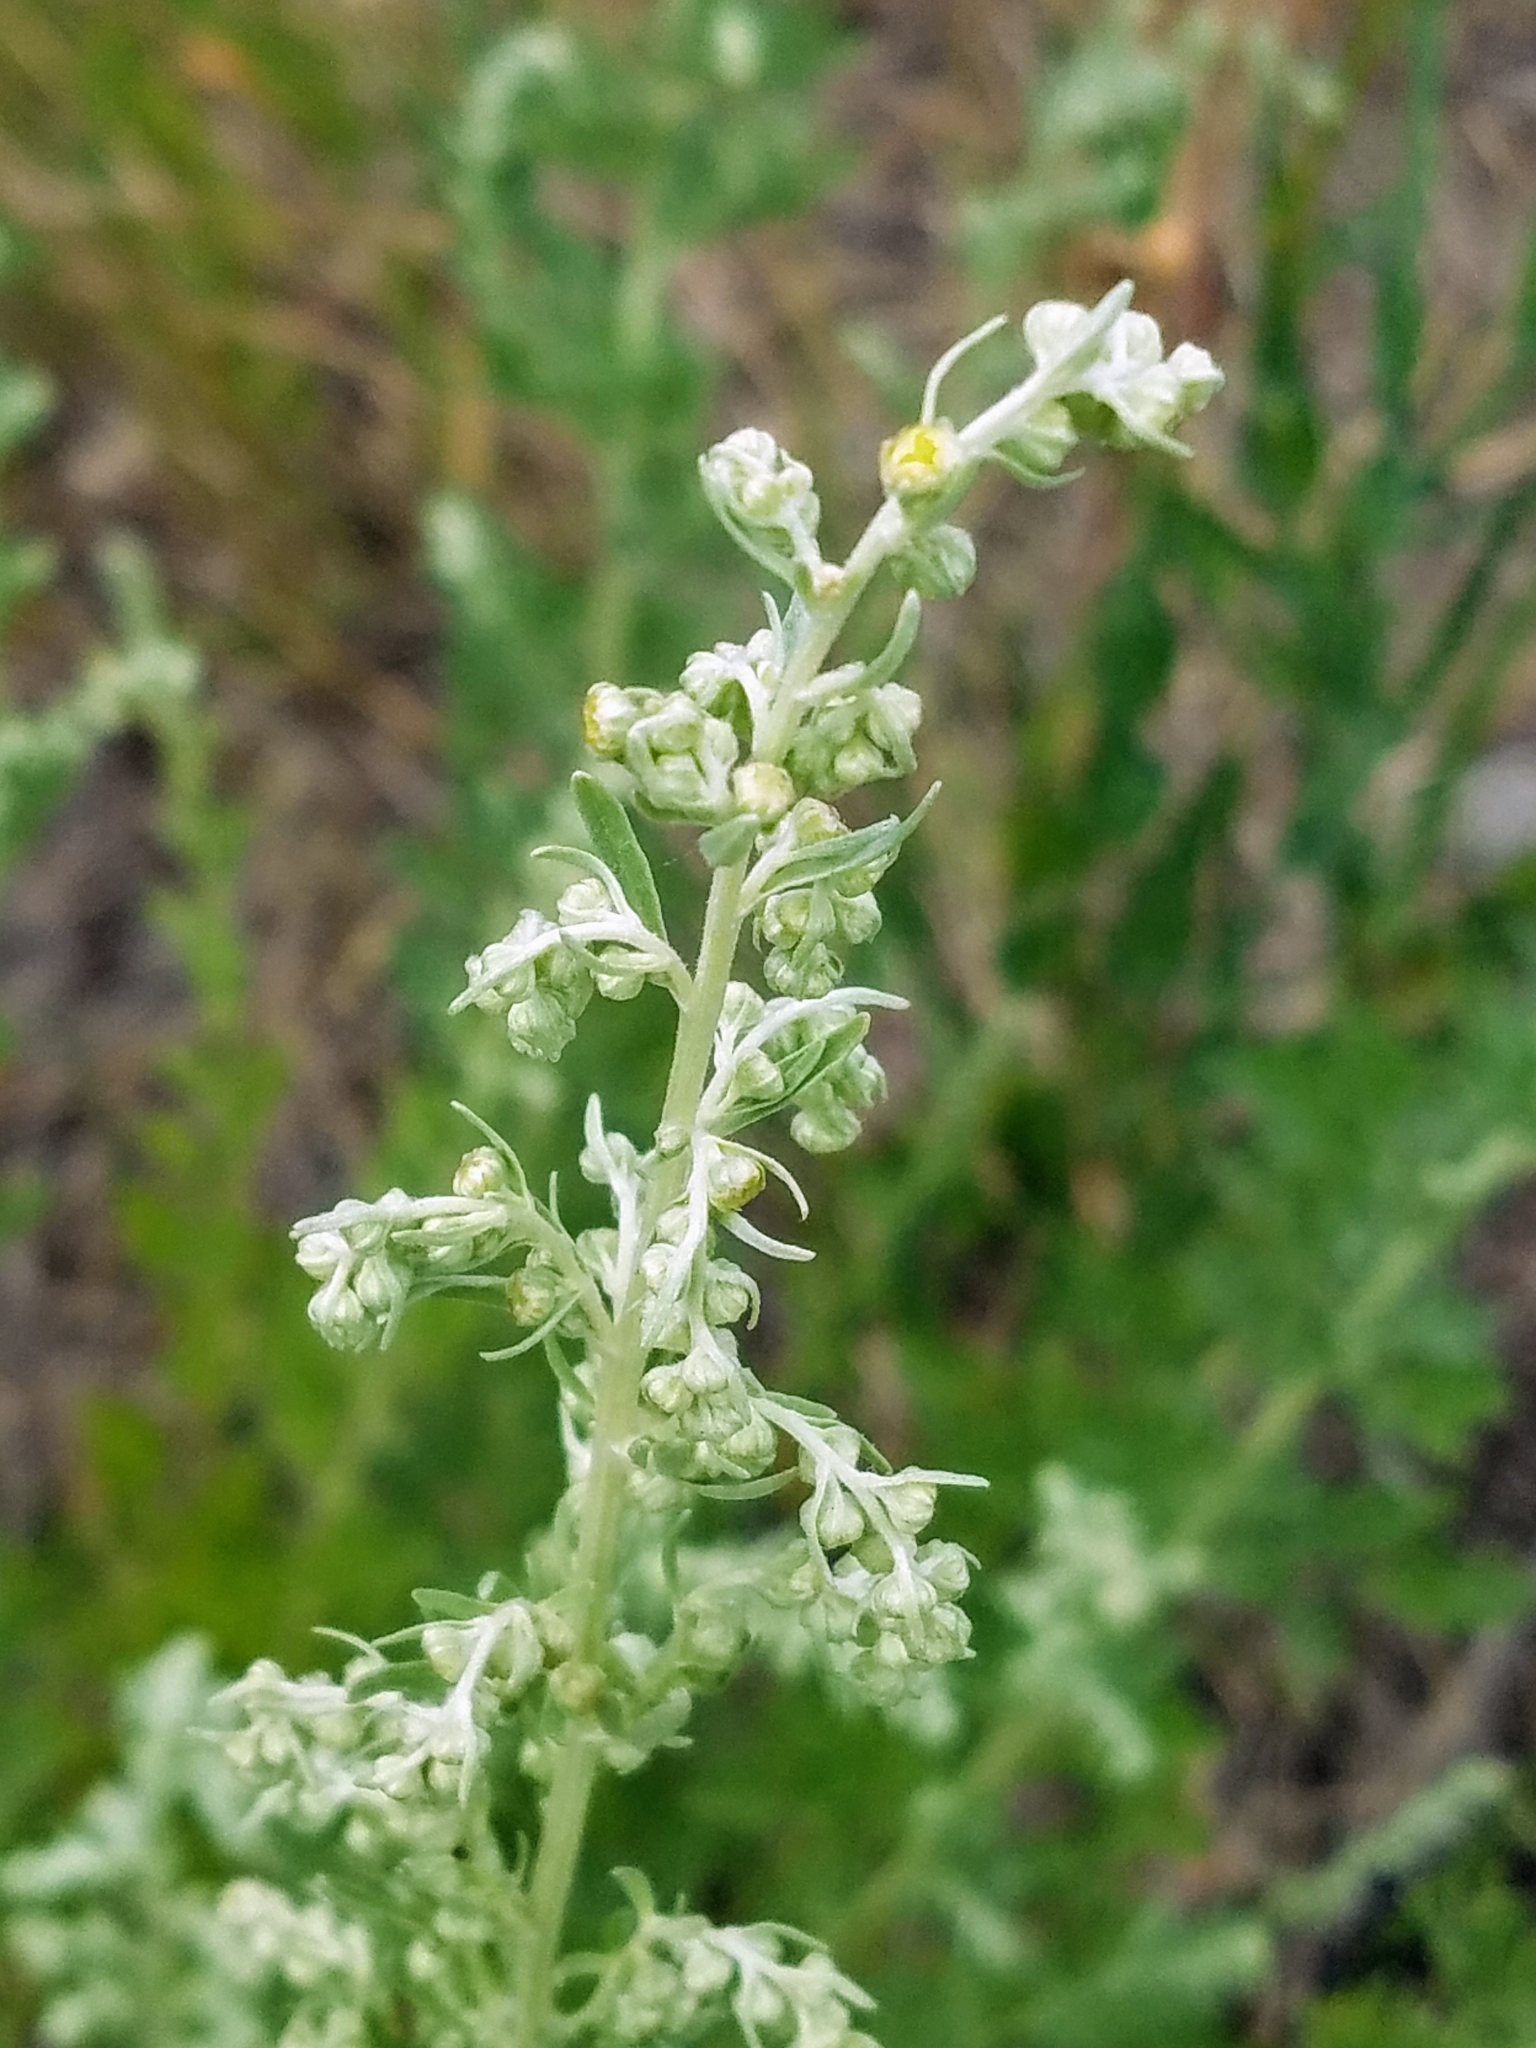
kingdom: Plantae
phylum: Tracheophyta
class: Magnoliopsida
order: Asterales
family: Asteraceae
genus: Artemisia
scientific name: Artemisia absinthium
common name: Wormwood
